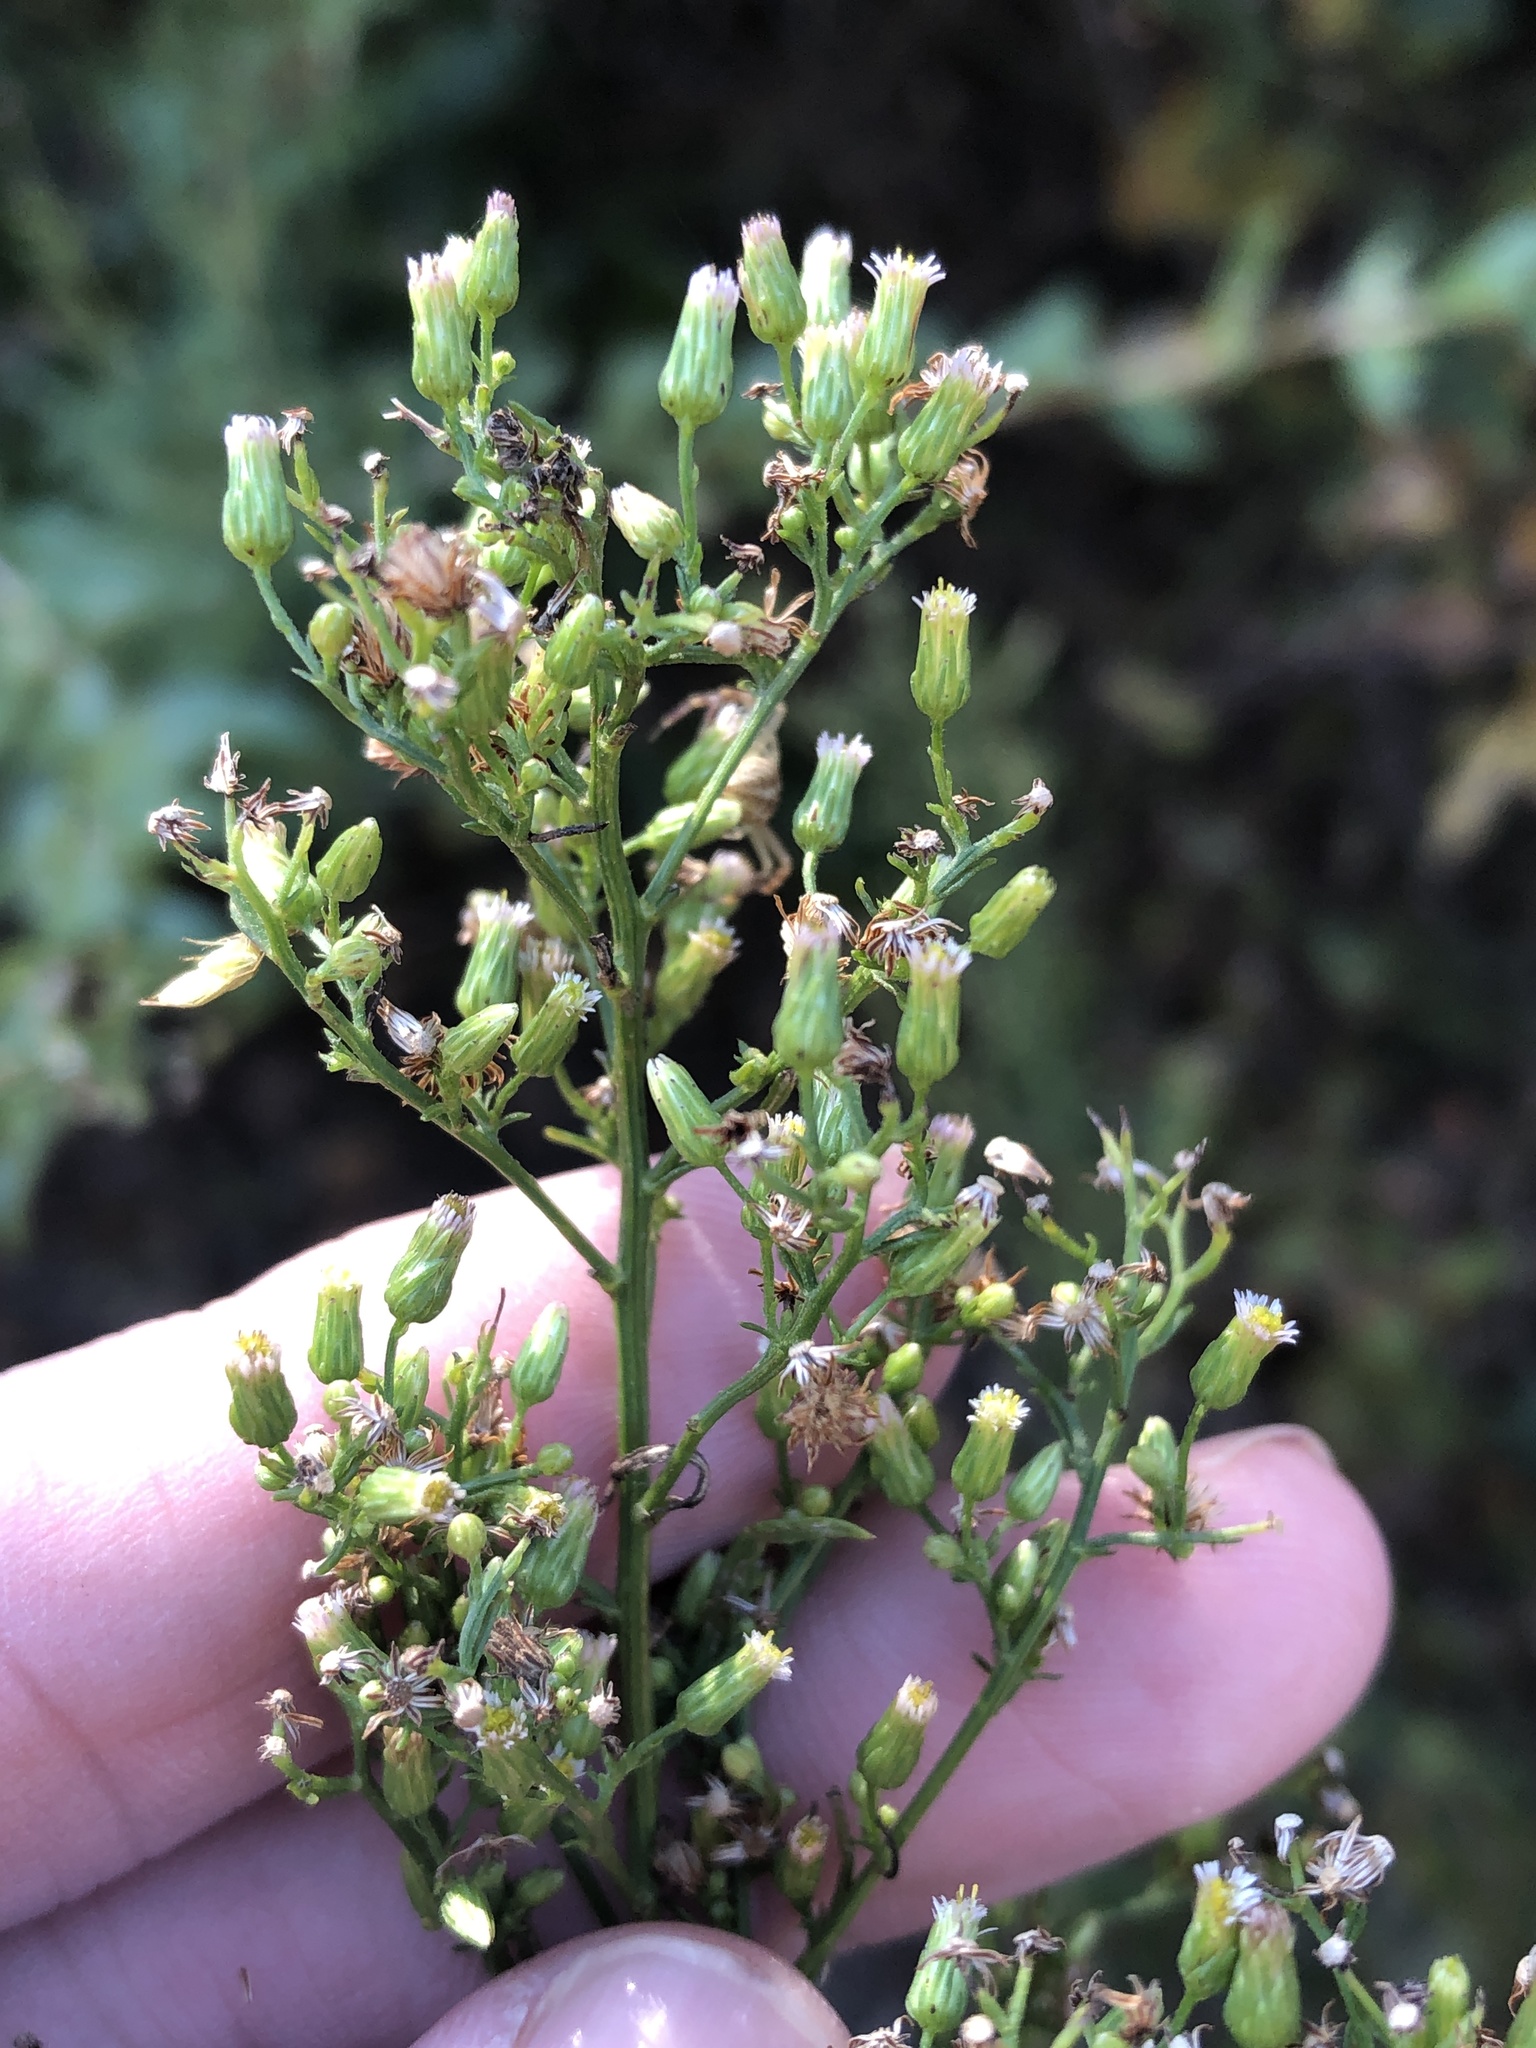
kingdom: Plantae
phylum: Tracheophyta
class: Magnoliopsida
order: Asterales
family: Asteraceae
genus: Erigeron
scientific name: Erigeron canadensis
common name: Canadian fleabane
